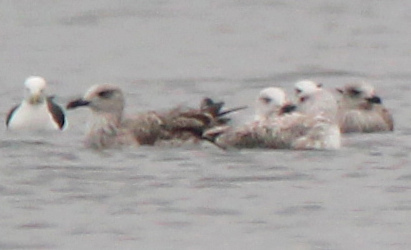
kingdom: Animalia
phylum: Chordata
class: Aves
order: Charadriiformes
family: Laridae
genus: Larus
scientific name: Larus fuscus
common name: Lesser black-backed gull
